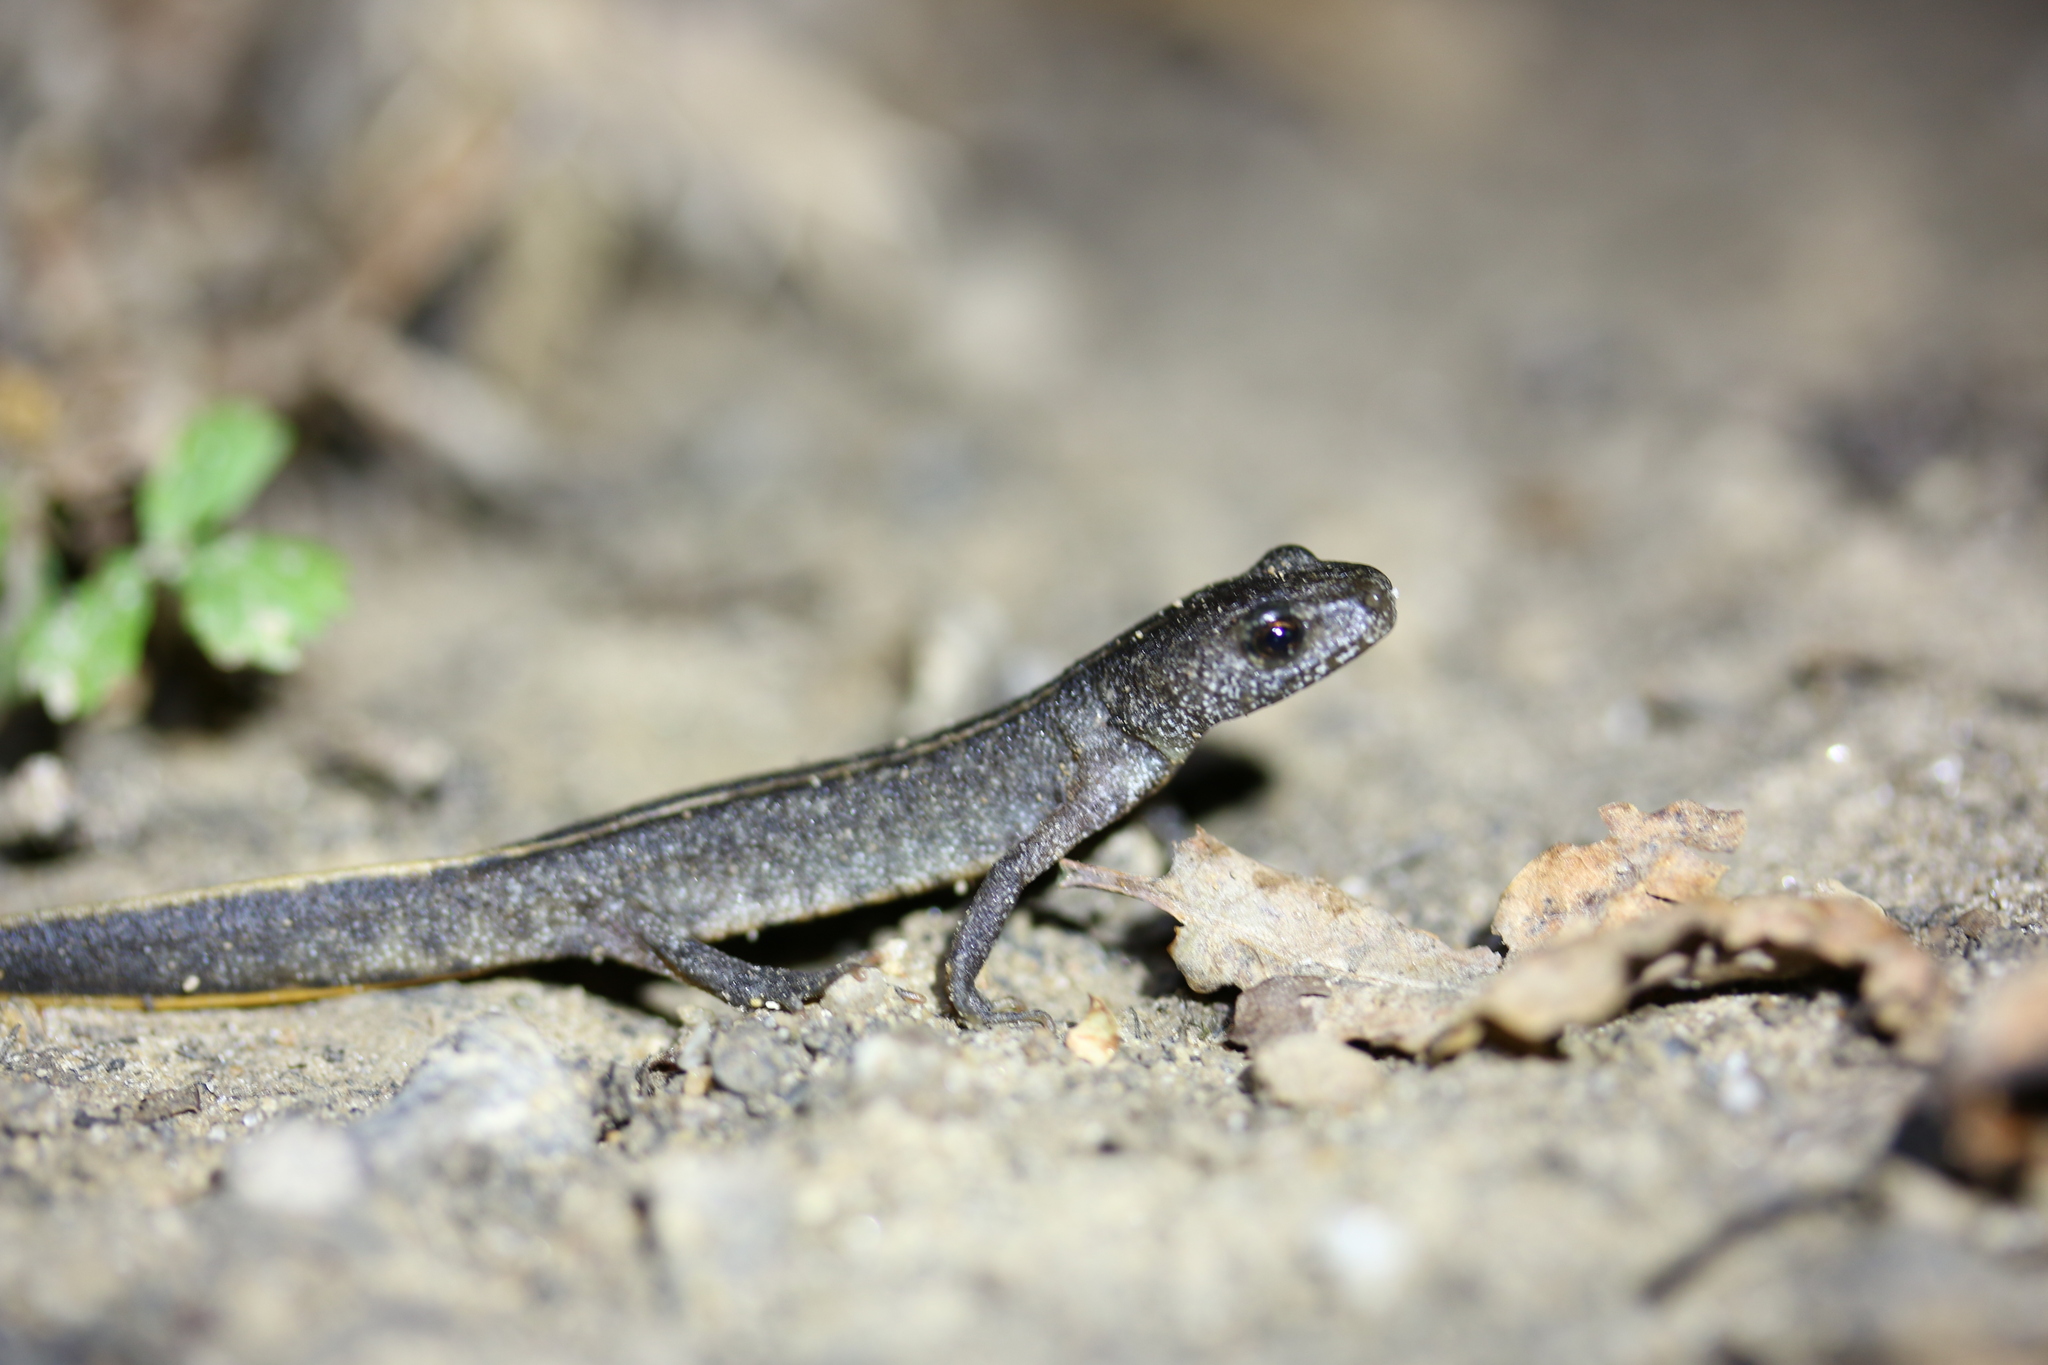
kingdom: Animalia
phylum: Chordata
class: Amphibia
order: Caudata
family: Salamandridae
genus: Triturus
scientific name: Triturus carnifex
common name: Italian crested newt
